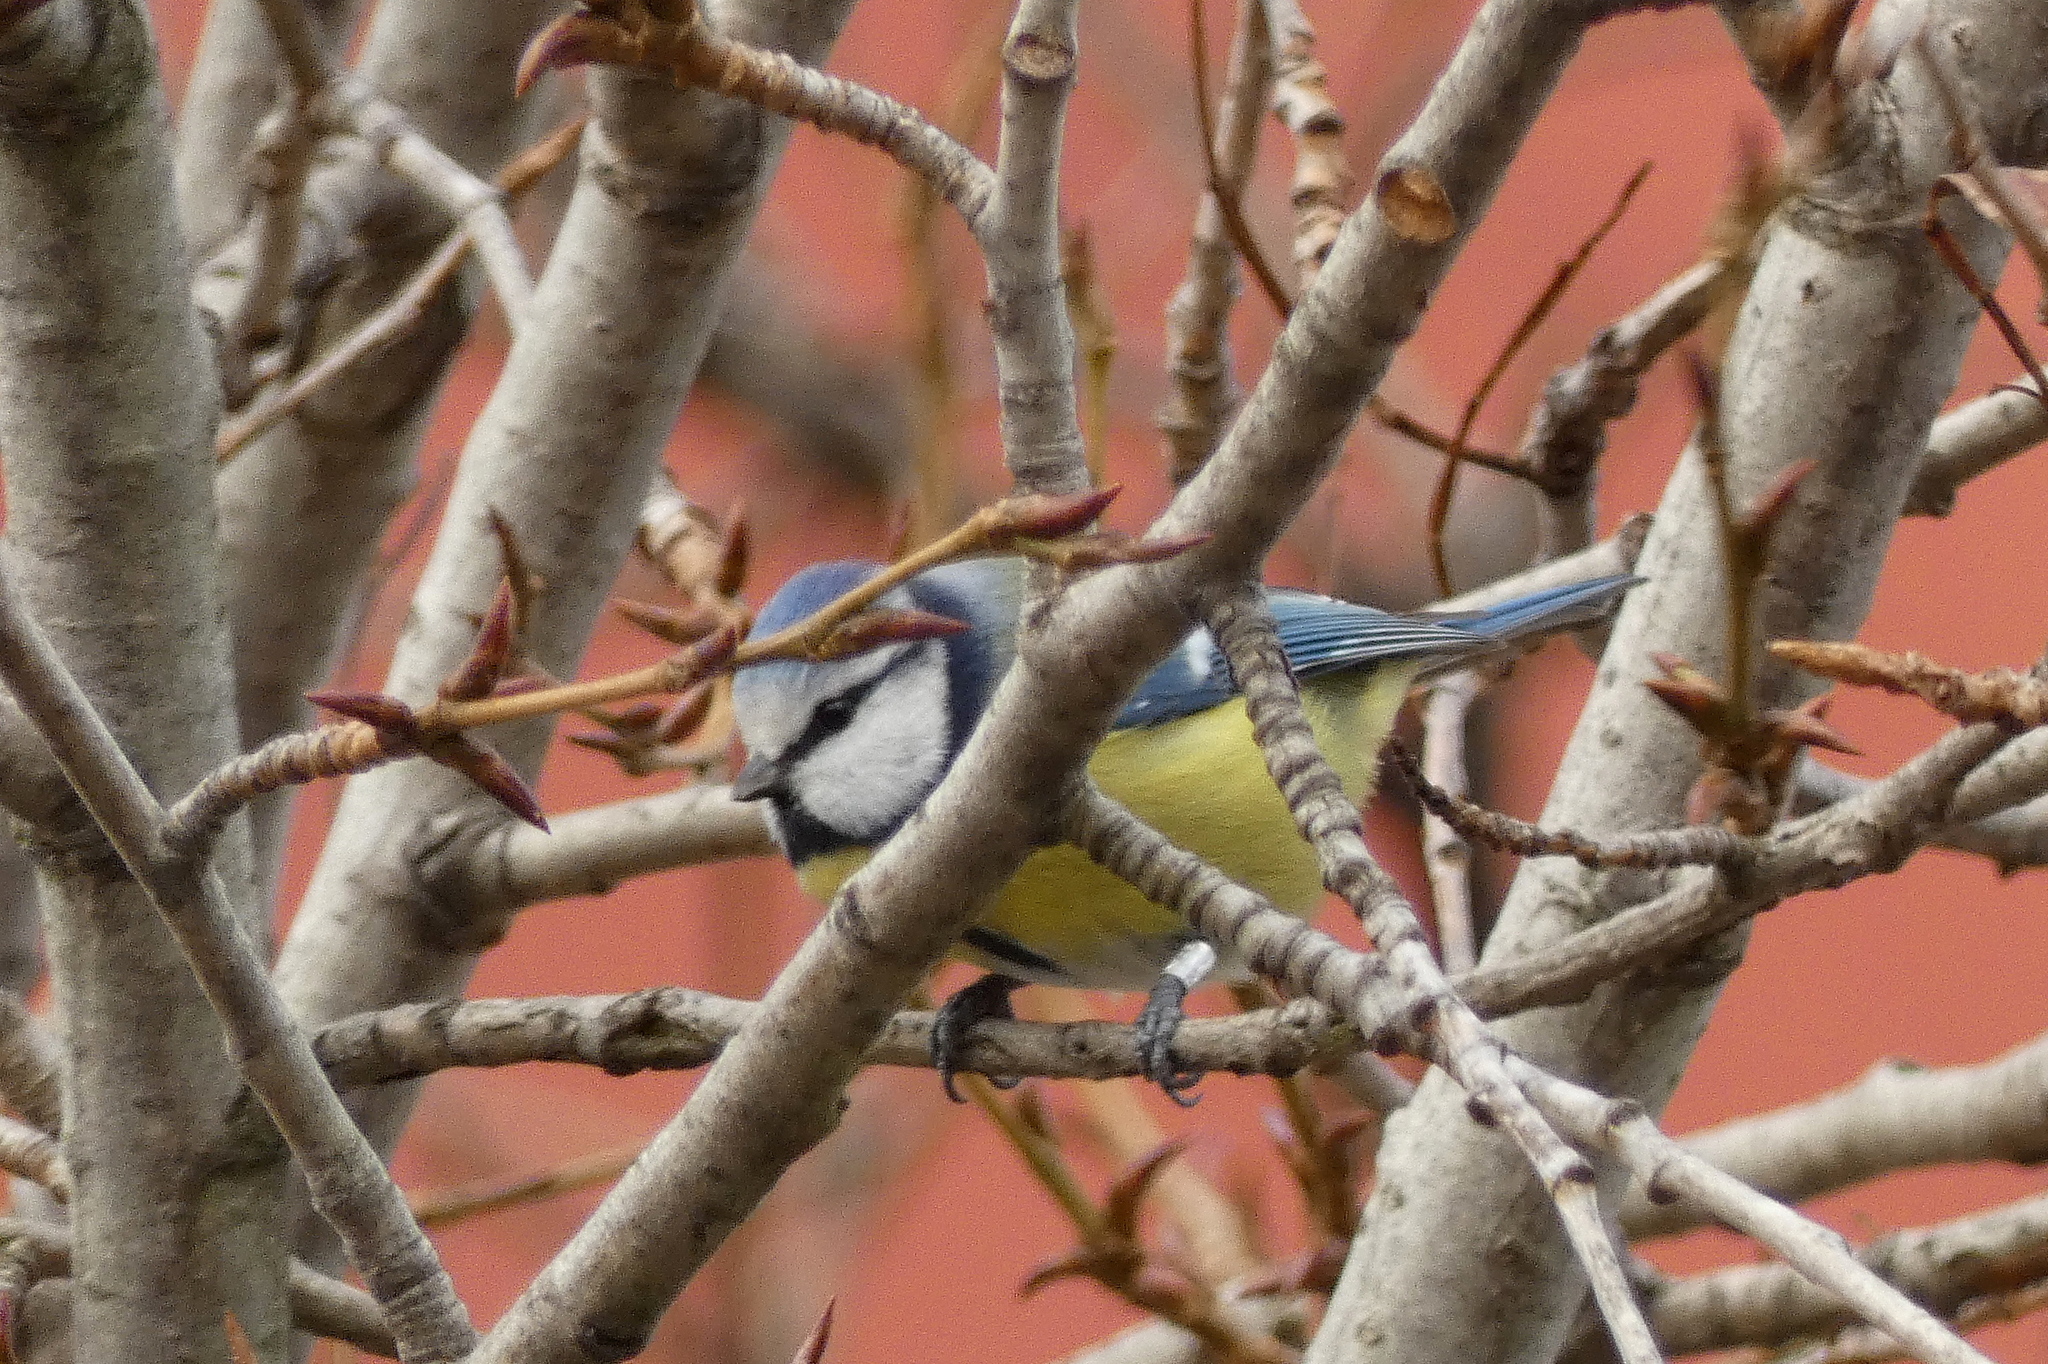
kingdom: Animalia
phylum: Chordata
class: Aves
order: Passeriformes
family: Paridae
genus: Cyanistes
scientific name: Cyanistes caeruleus
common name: Eurasian blue tit
